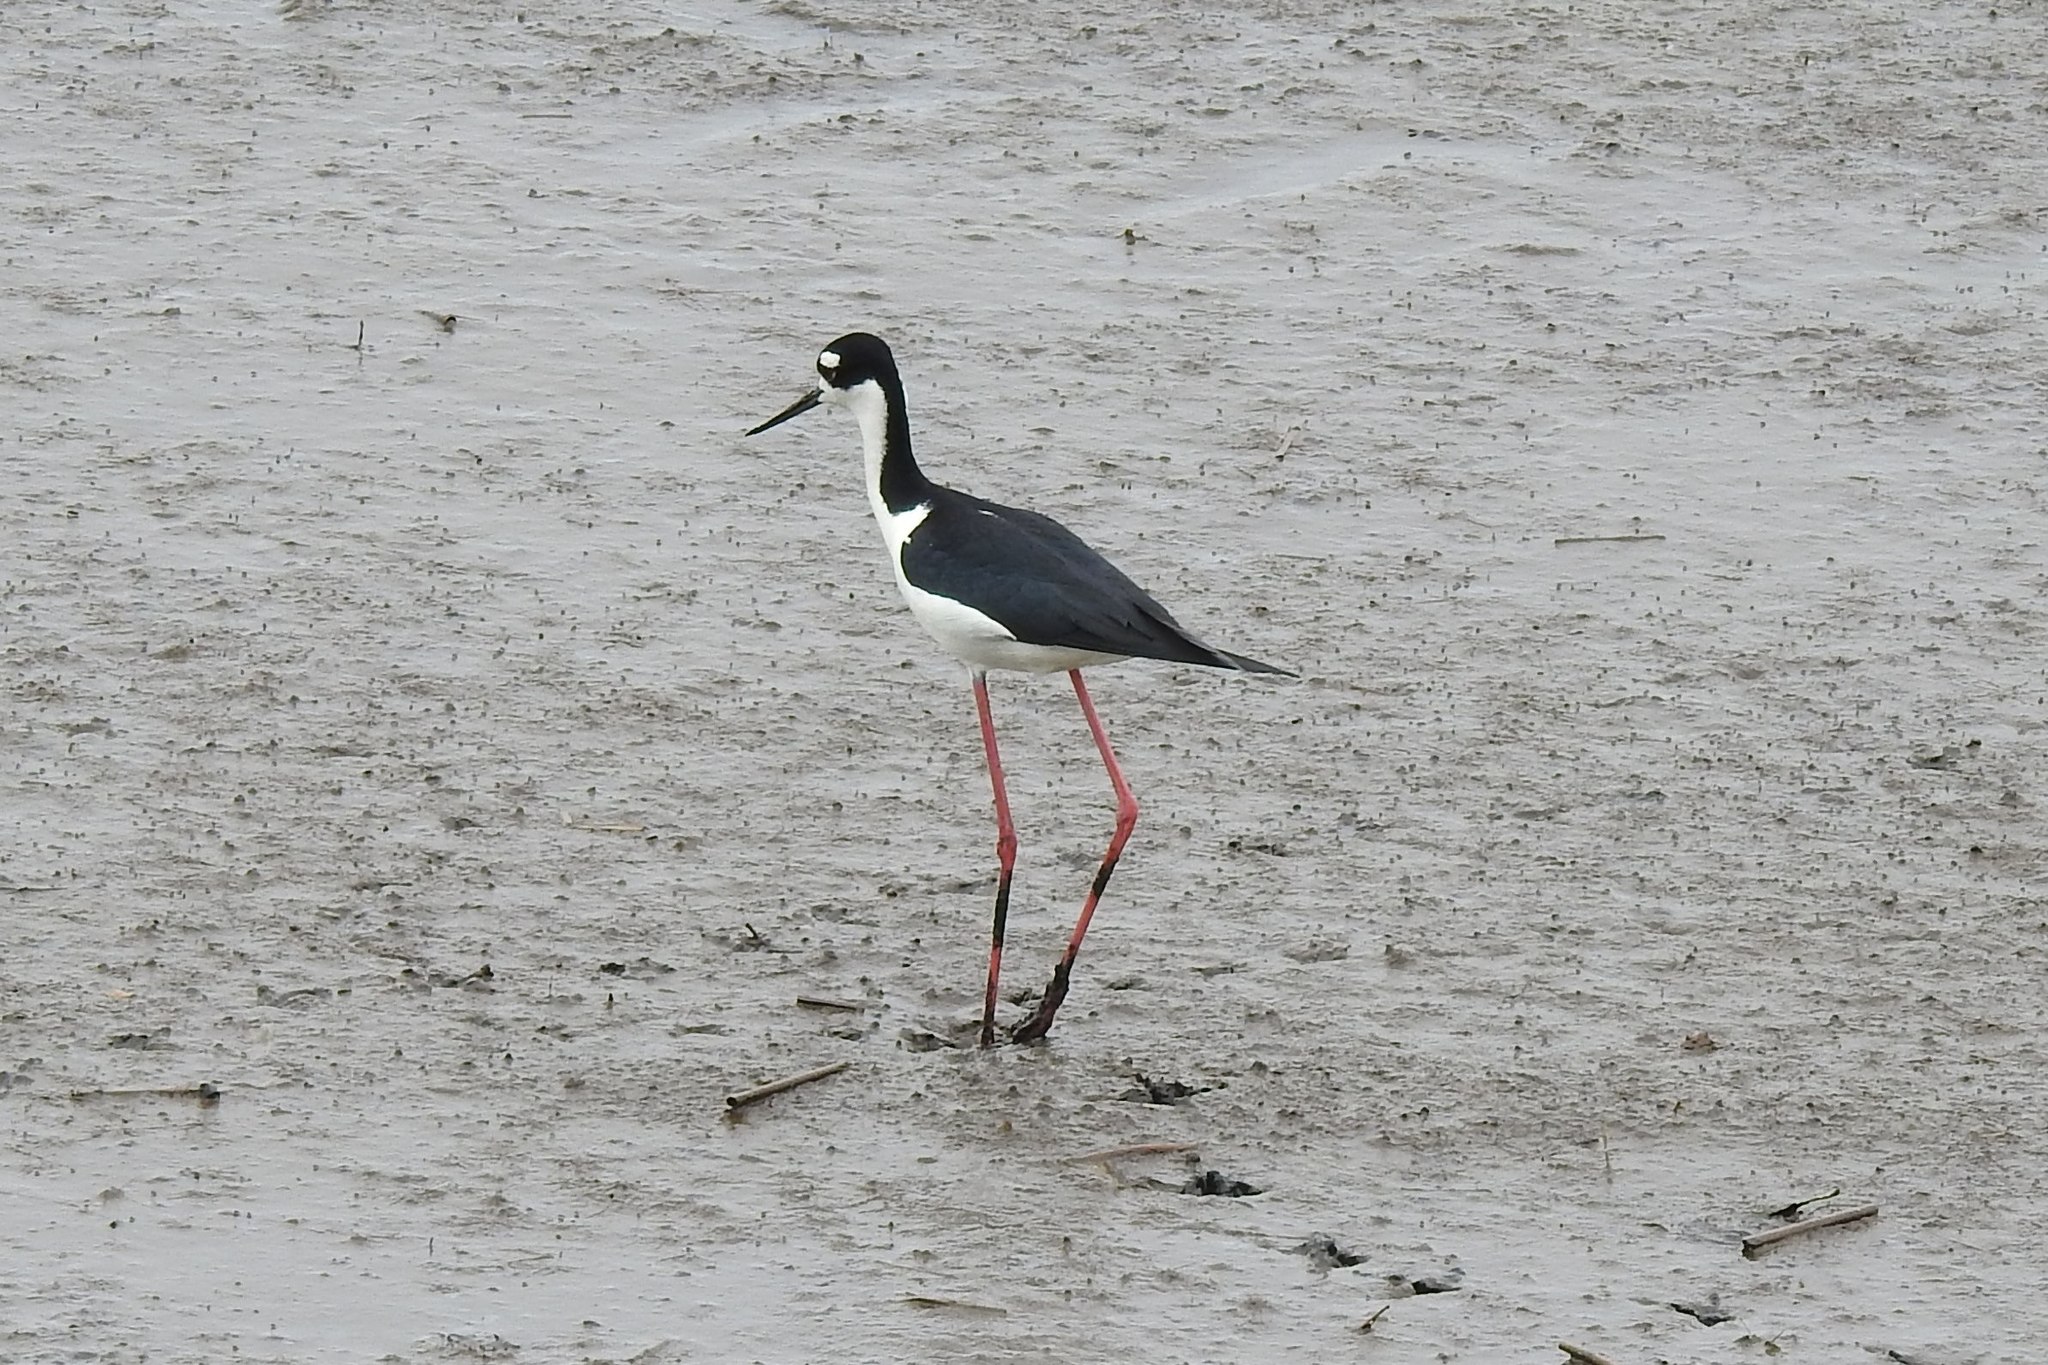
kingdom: Animalia
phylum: Chordata
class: Aves
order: Charadriiformes
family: Recurvirostridae
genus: Himantopus
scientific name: Himantopus mexicanus
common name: Black-necked stilt
